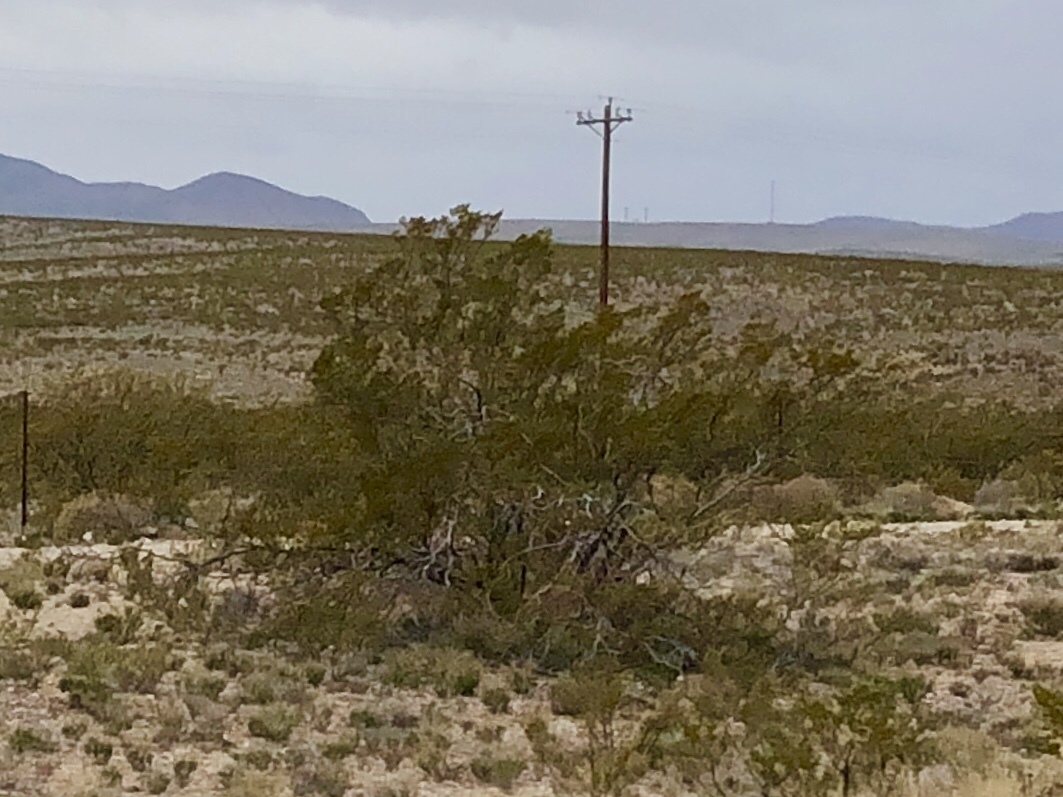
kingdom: Plantae
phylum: Tracheophyta
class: Magnoliopsida
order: Zygophyllales
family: Zygophyllaceae
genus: Larrea
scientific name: Larrea tridentata
